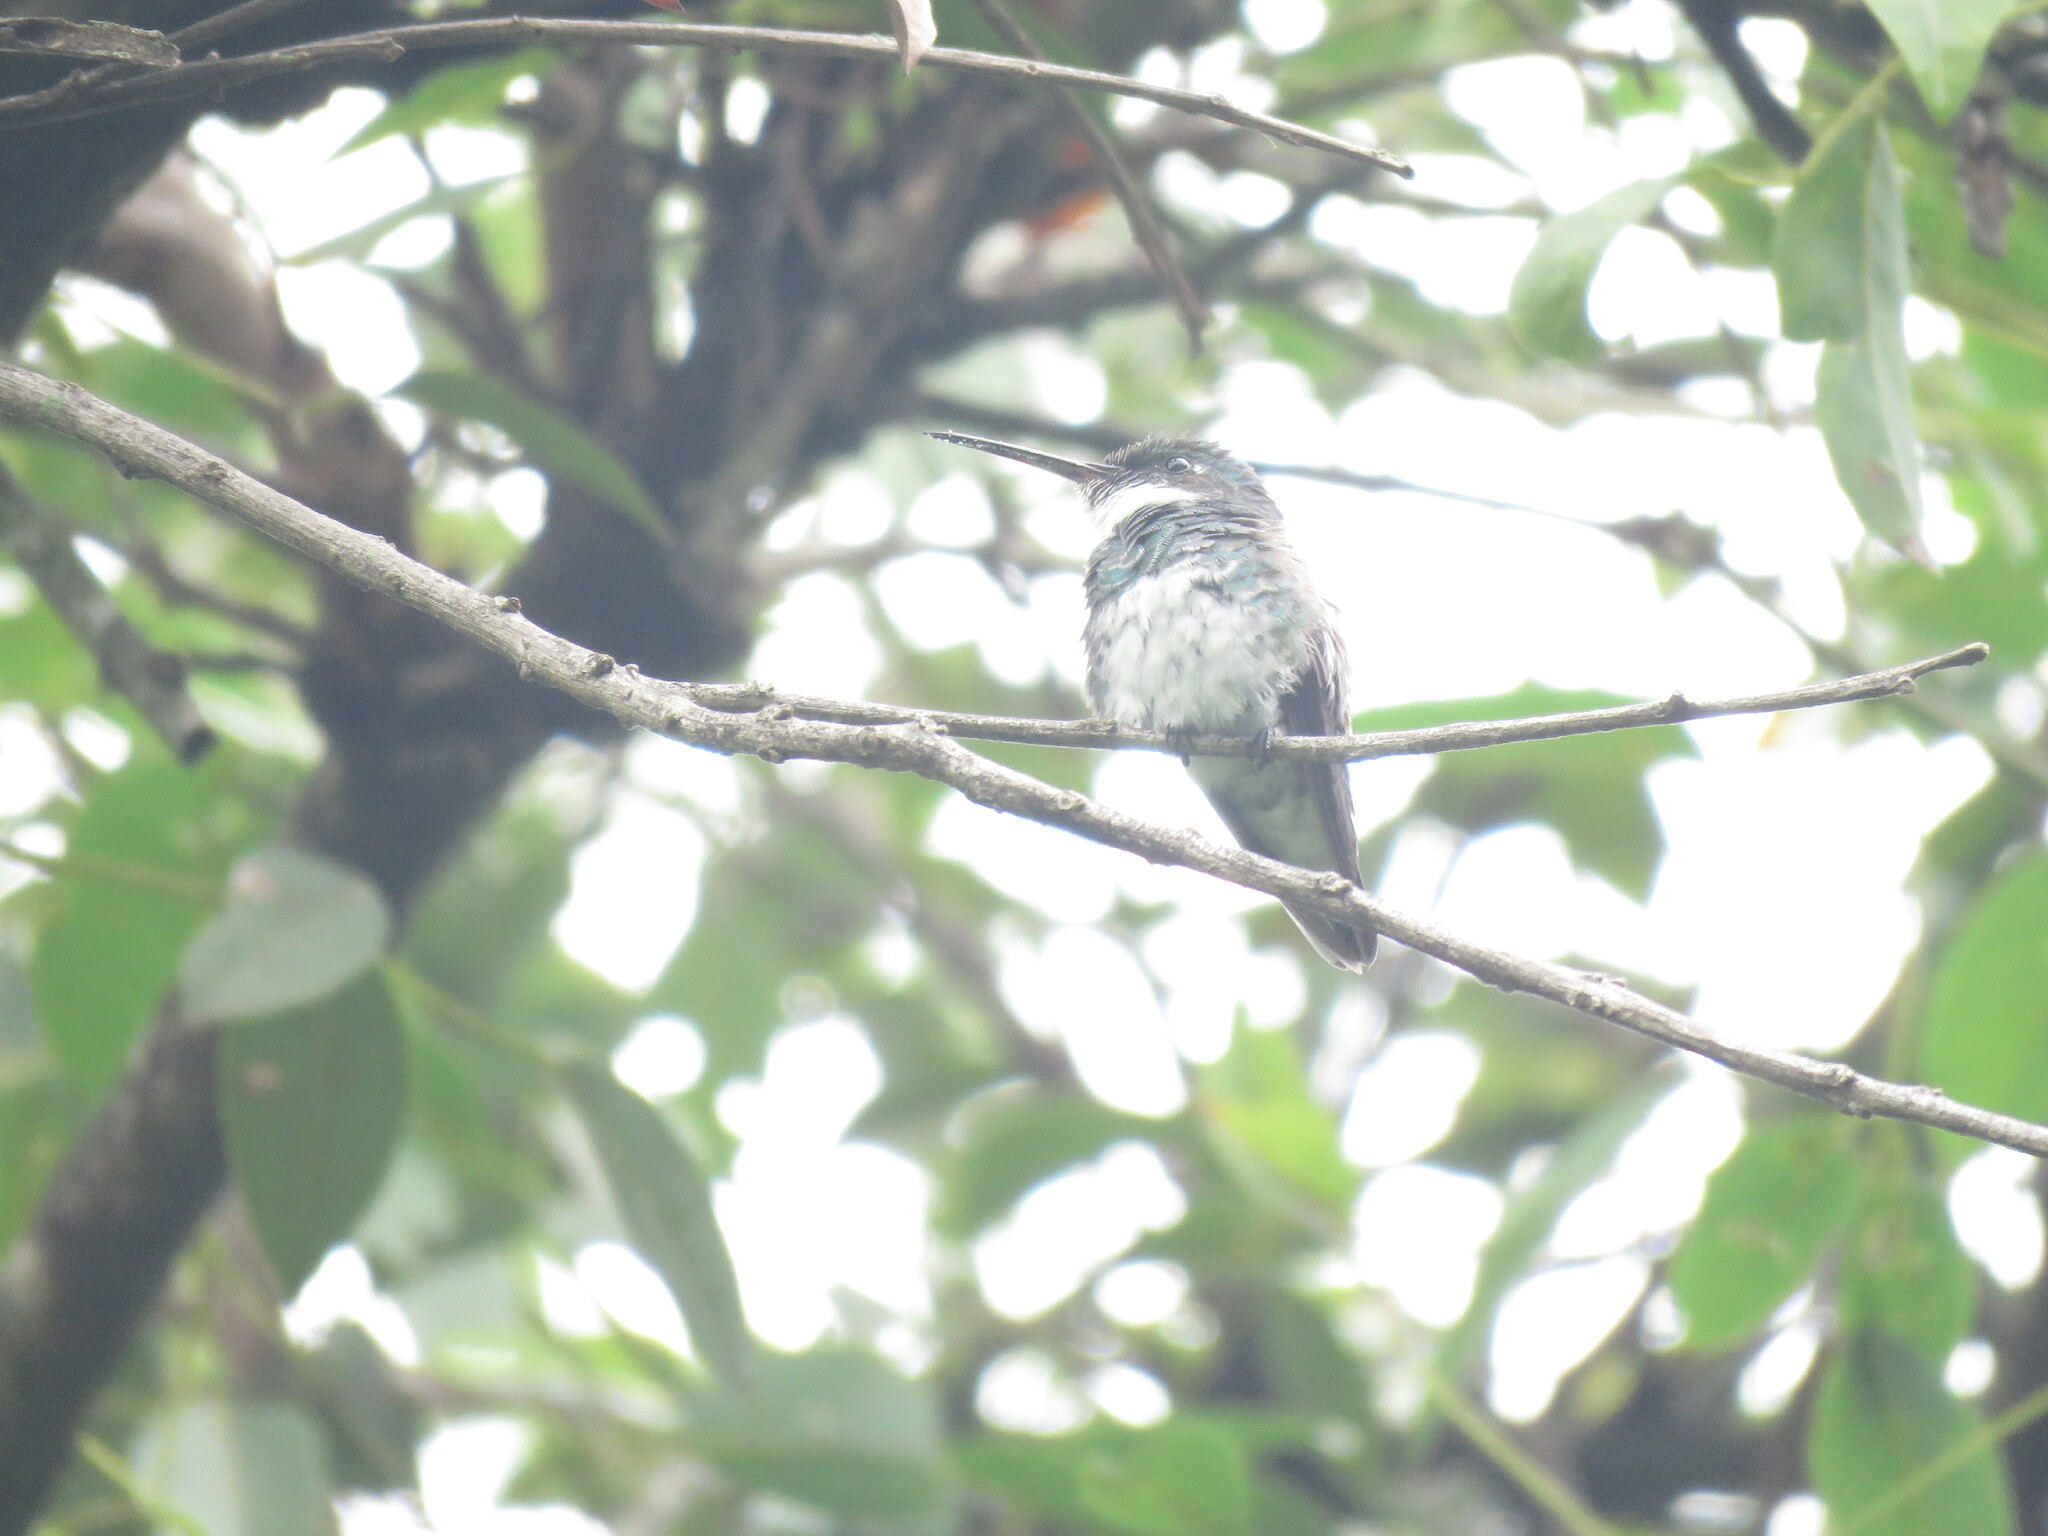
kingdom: Animalia
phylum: Chordata
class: Aves
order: Apodiformes
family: Trochilidae
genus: Leucochloris
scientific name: Leucochloris albicollis
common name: White-throated hummingbird
